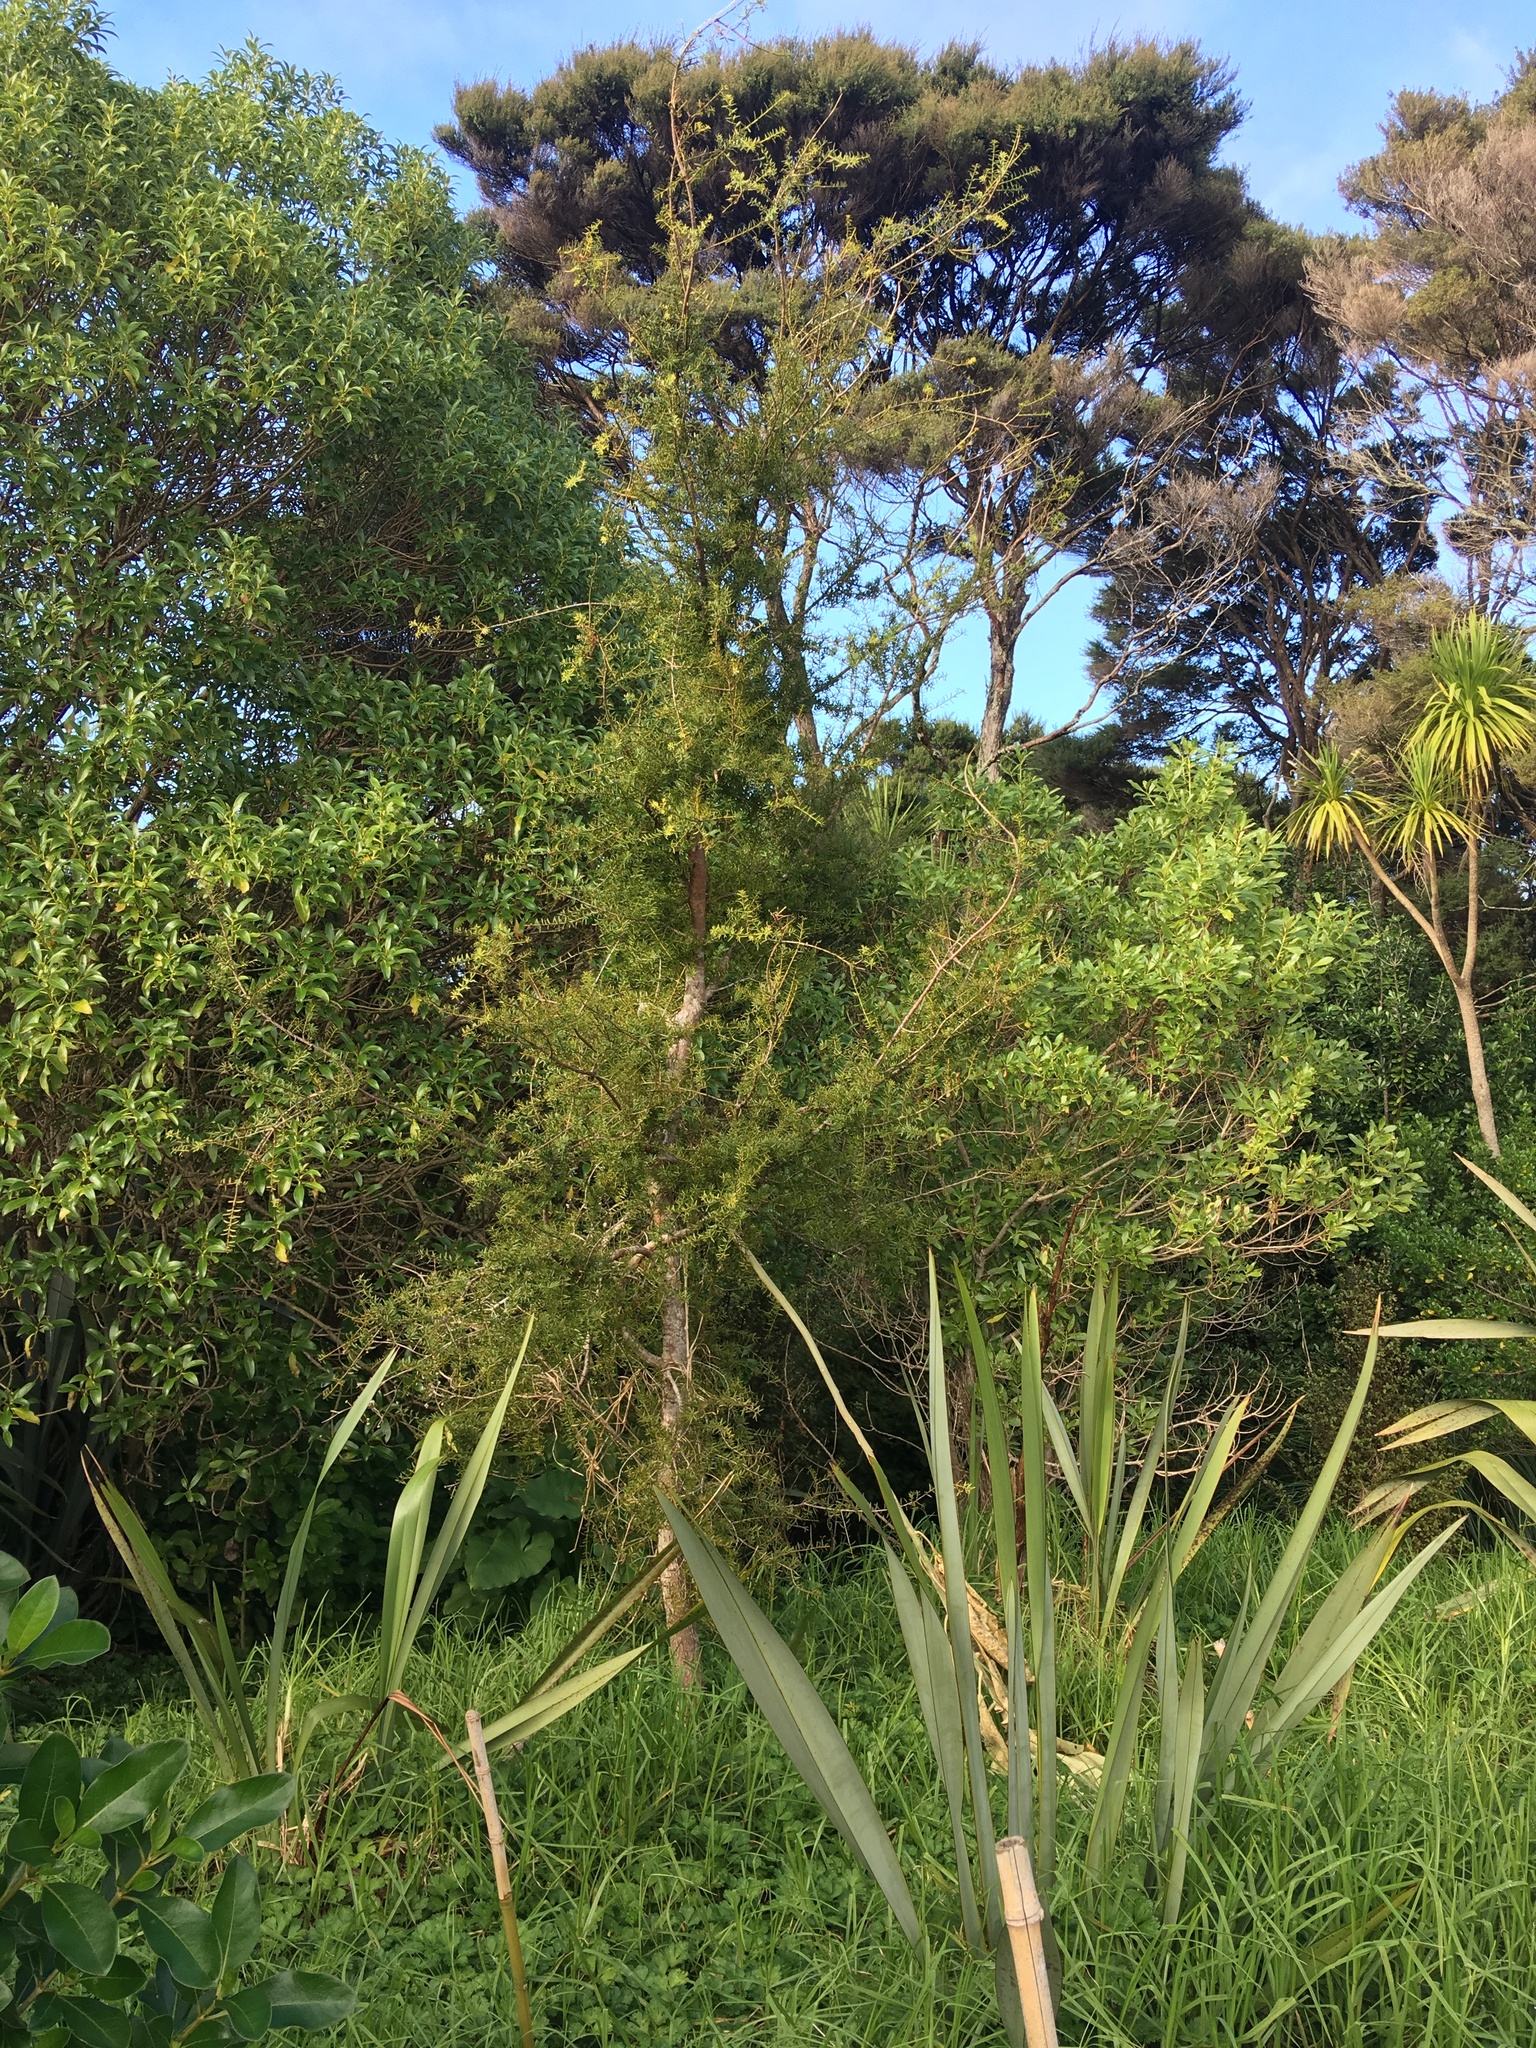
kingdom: Plantae
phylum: Tracheophyta
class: Pinopsida
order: Pinales
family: Podocarpaceae
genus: Podocarpus
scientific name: Podocarpus totara
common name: Totara
